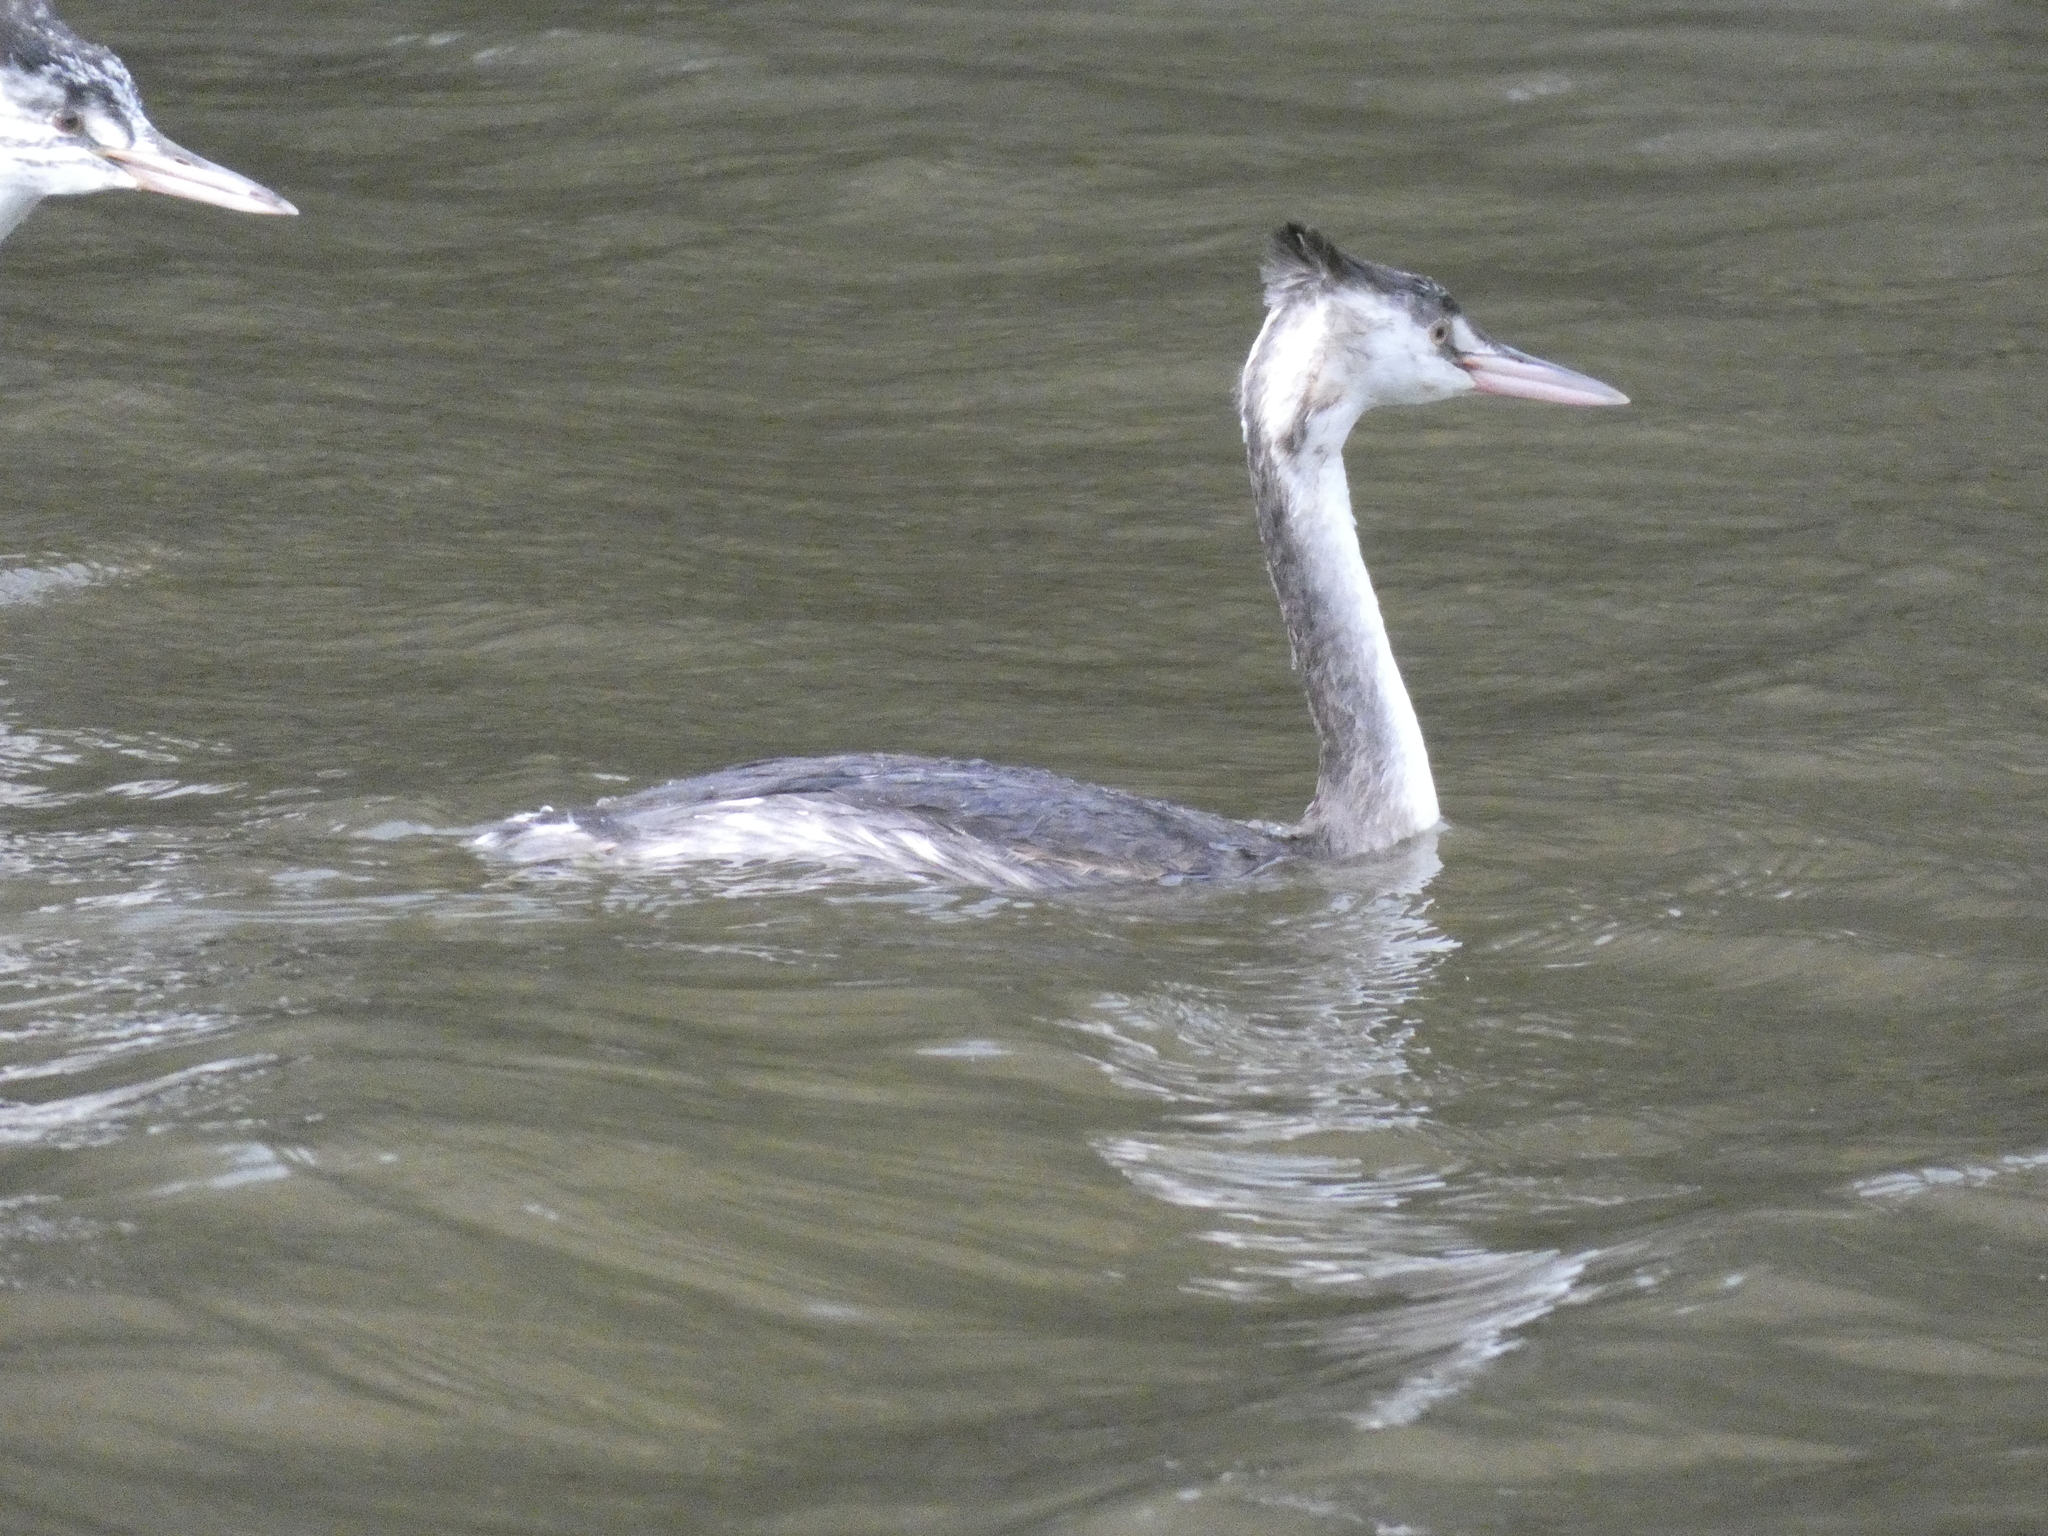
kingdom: Animalia
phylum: Chordata
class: Aves
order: Podicipediformes
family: Podicipedidae
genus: Podiceps
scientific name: Podiceps cristatus
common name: Great crested grebe
